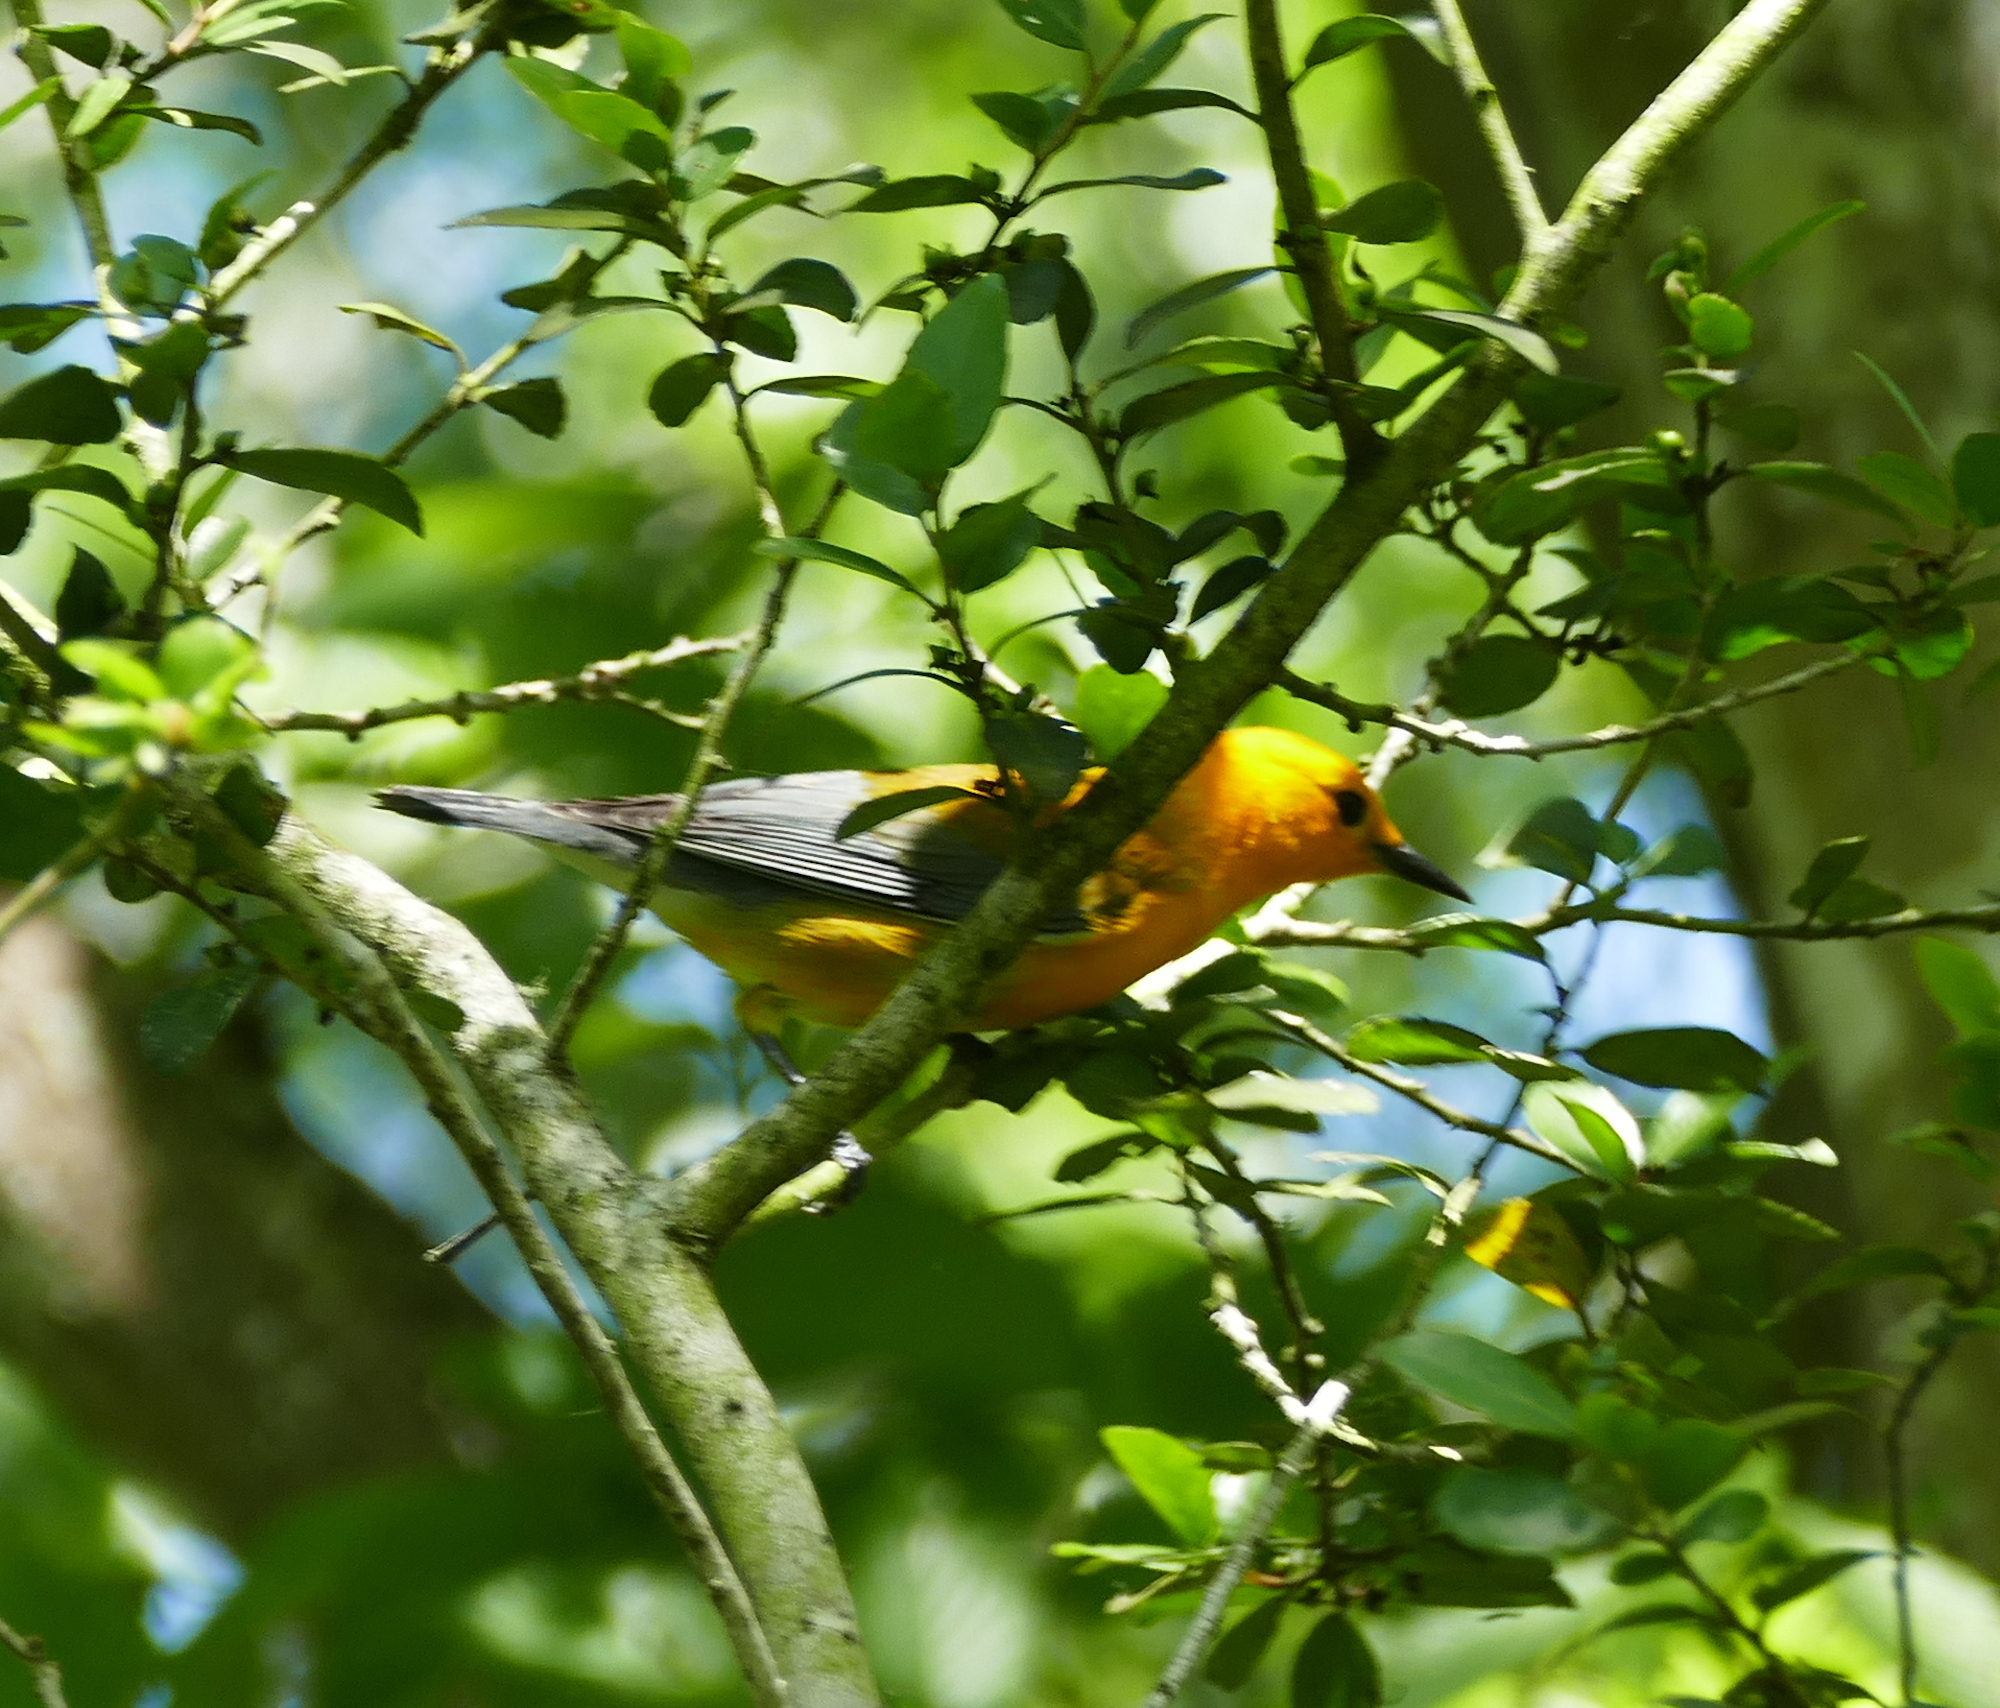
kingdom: Animalia
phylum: Chordata
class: Aves
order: Passeriformes
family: Parulidae
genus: Protonotaria
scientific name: Protonotaria citrea
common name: Prothonotary warbler
